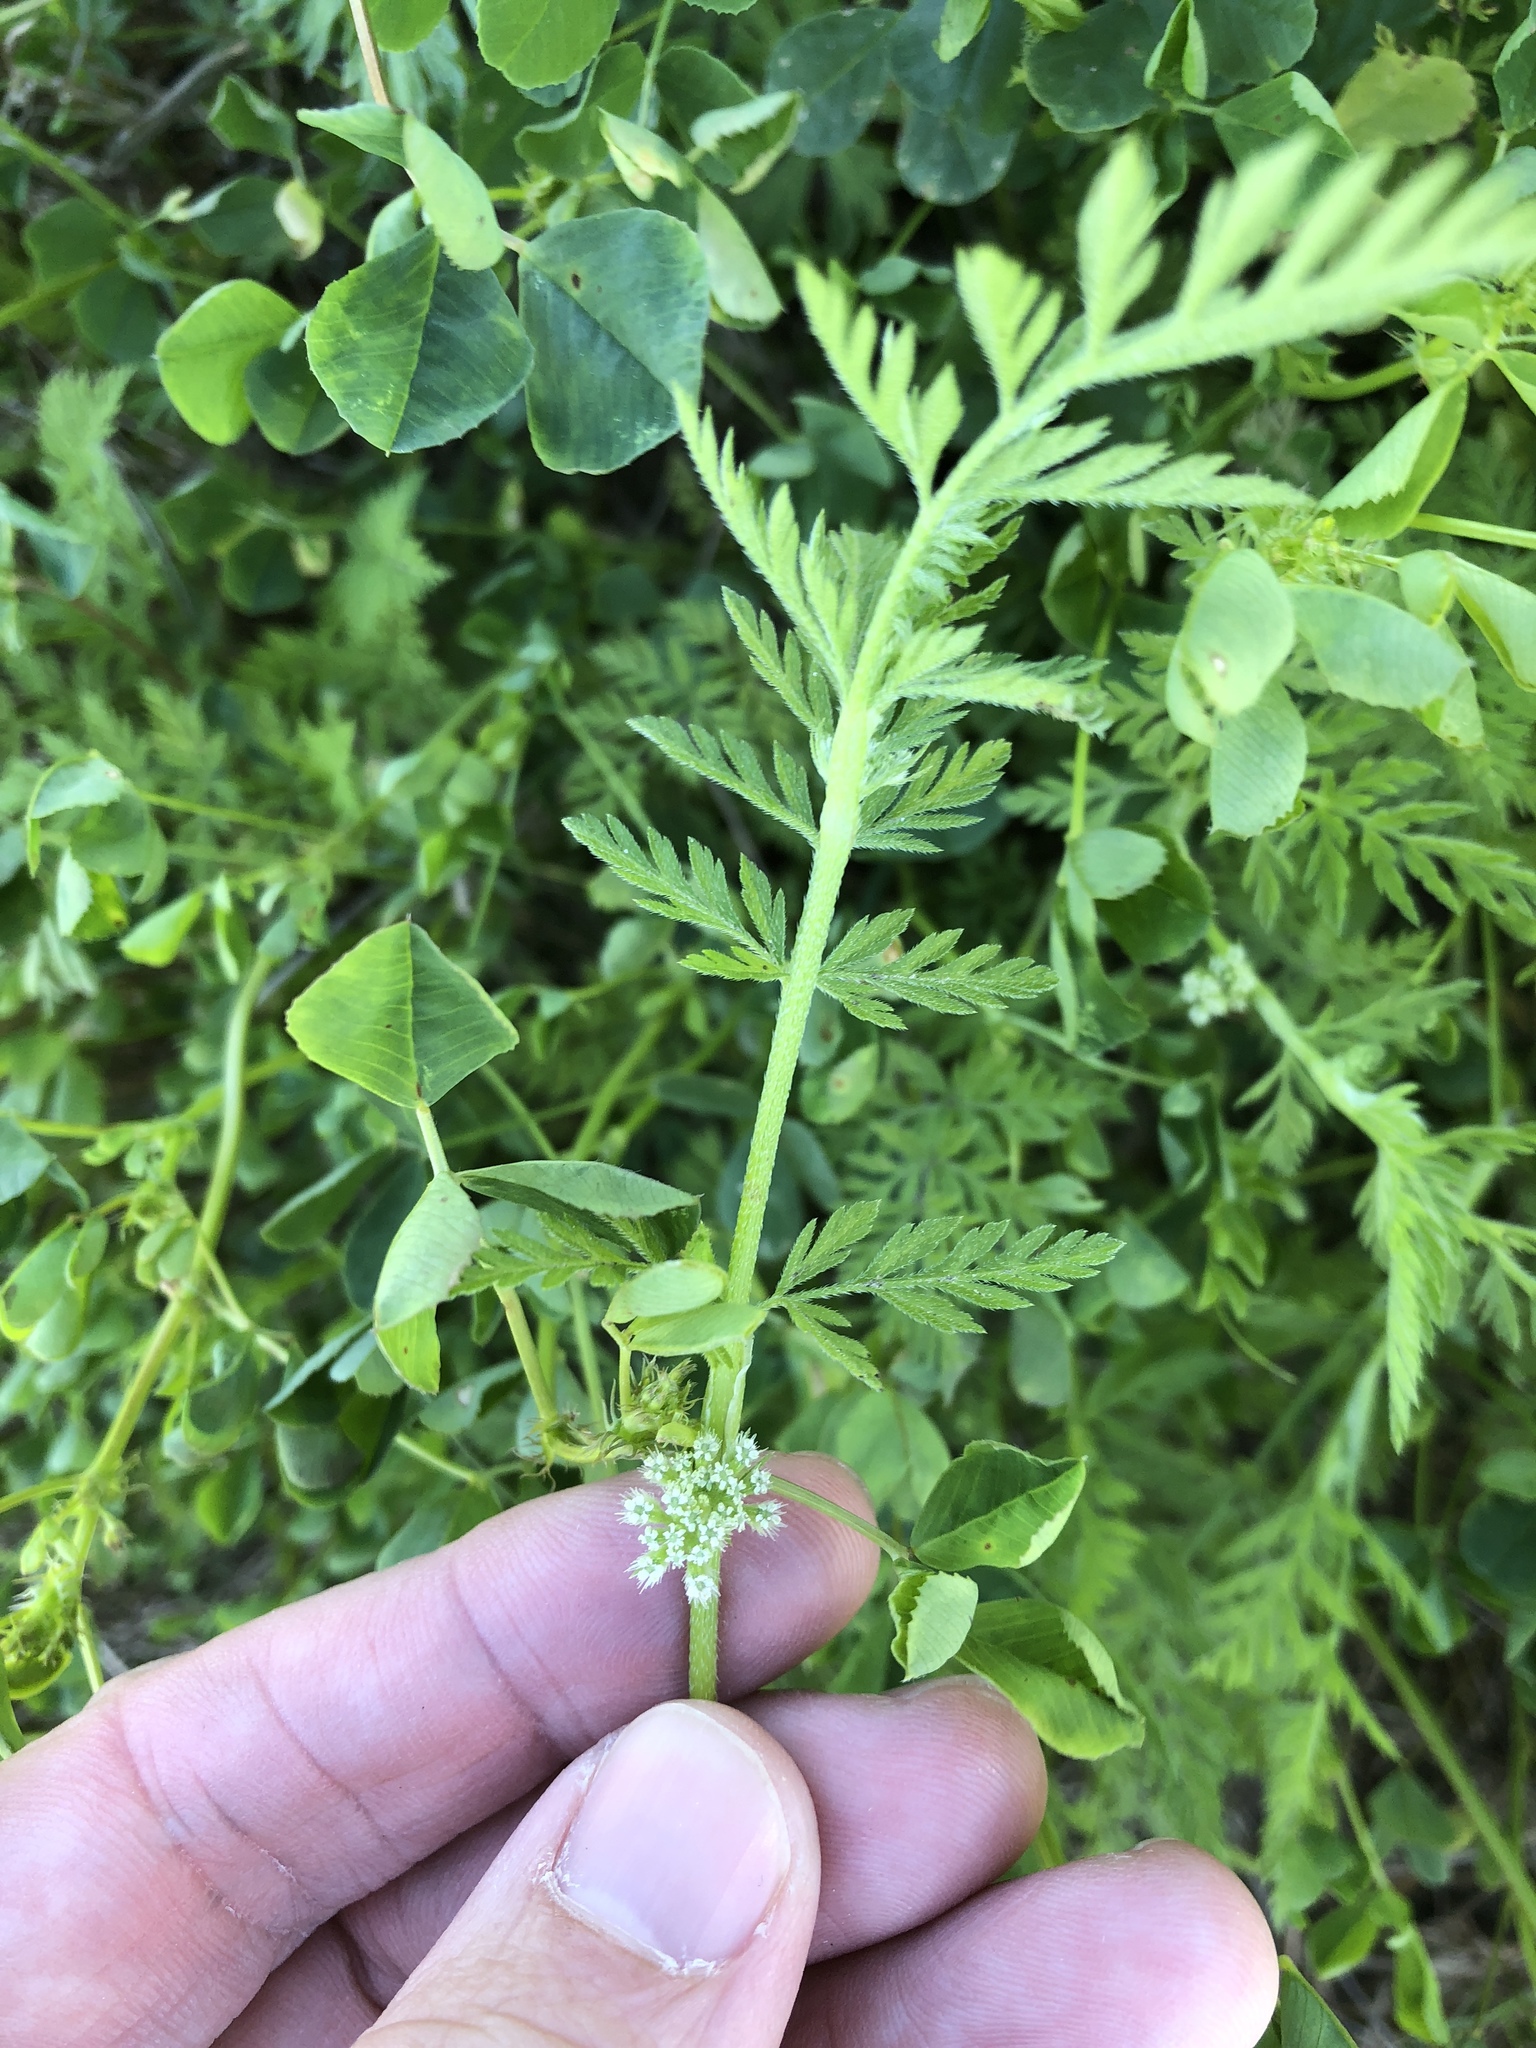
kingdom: Plantae
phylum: Tracheophyta
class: Magnoliopsida
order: Apiales
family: Apiaceae
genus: Torilis
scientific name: Torilis nodosa
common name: Knotted hedge-parsley
